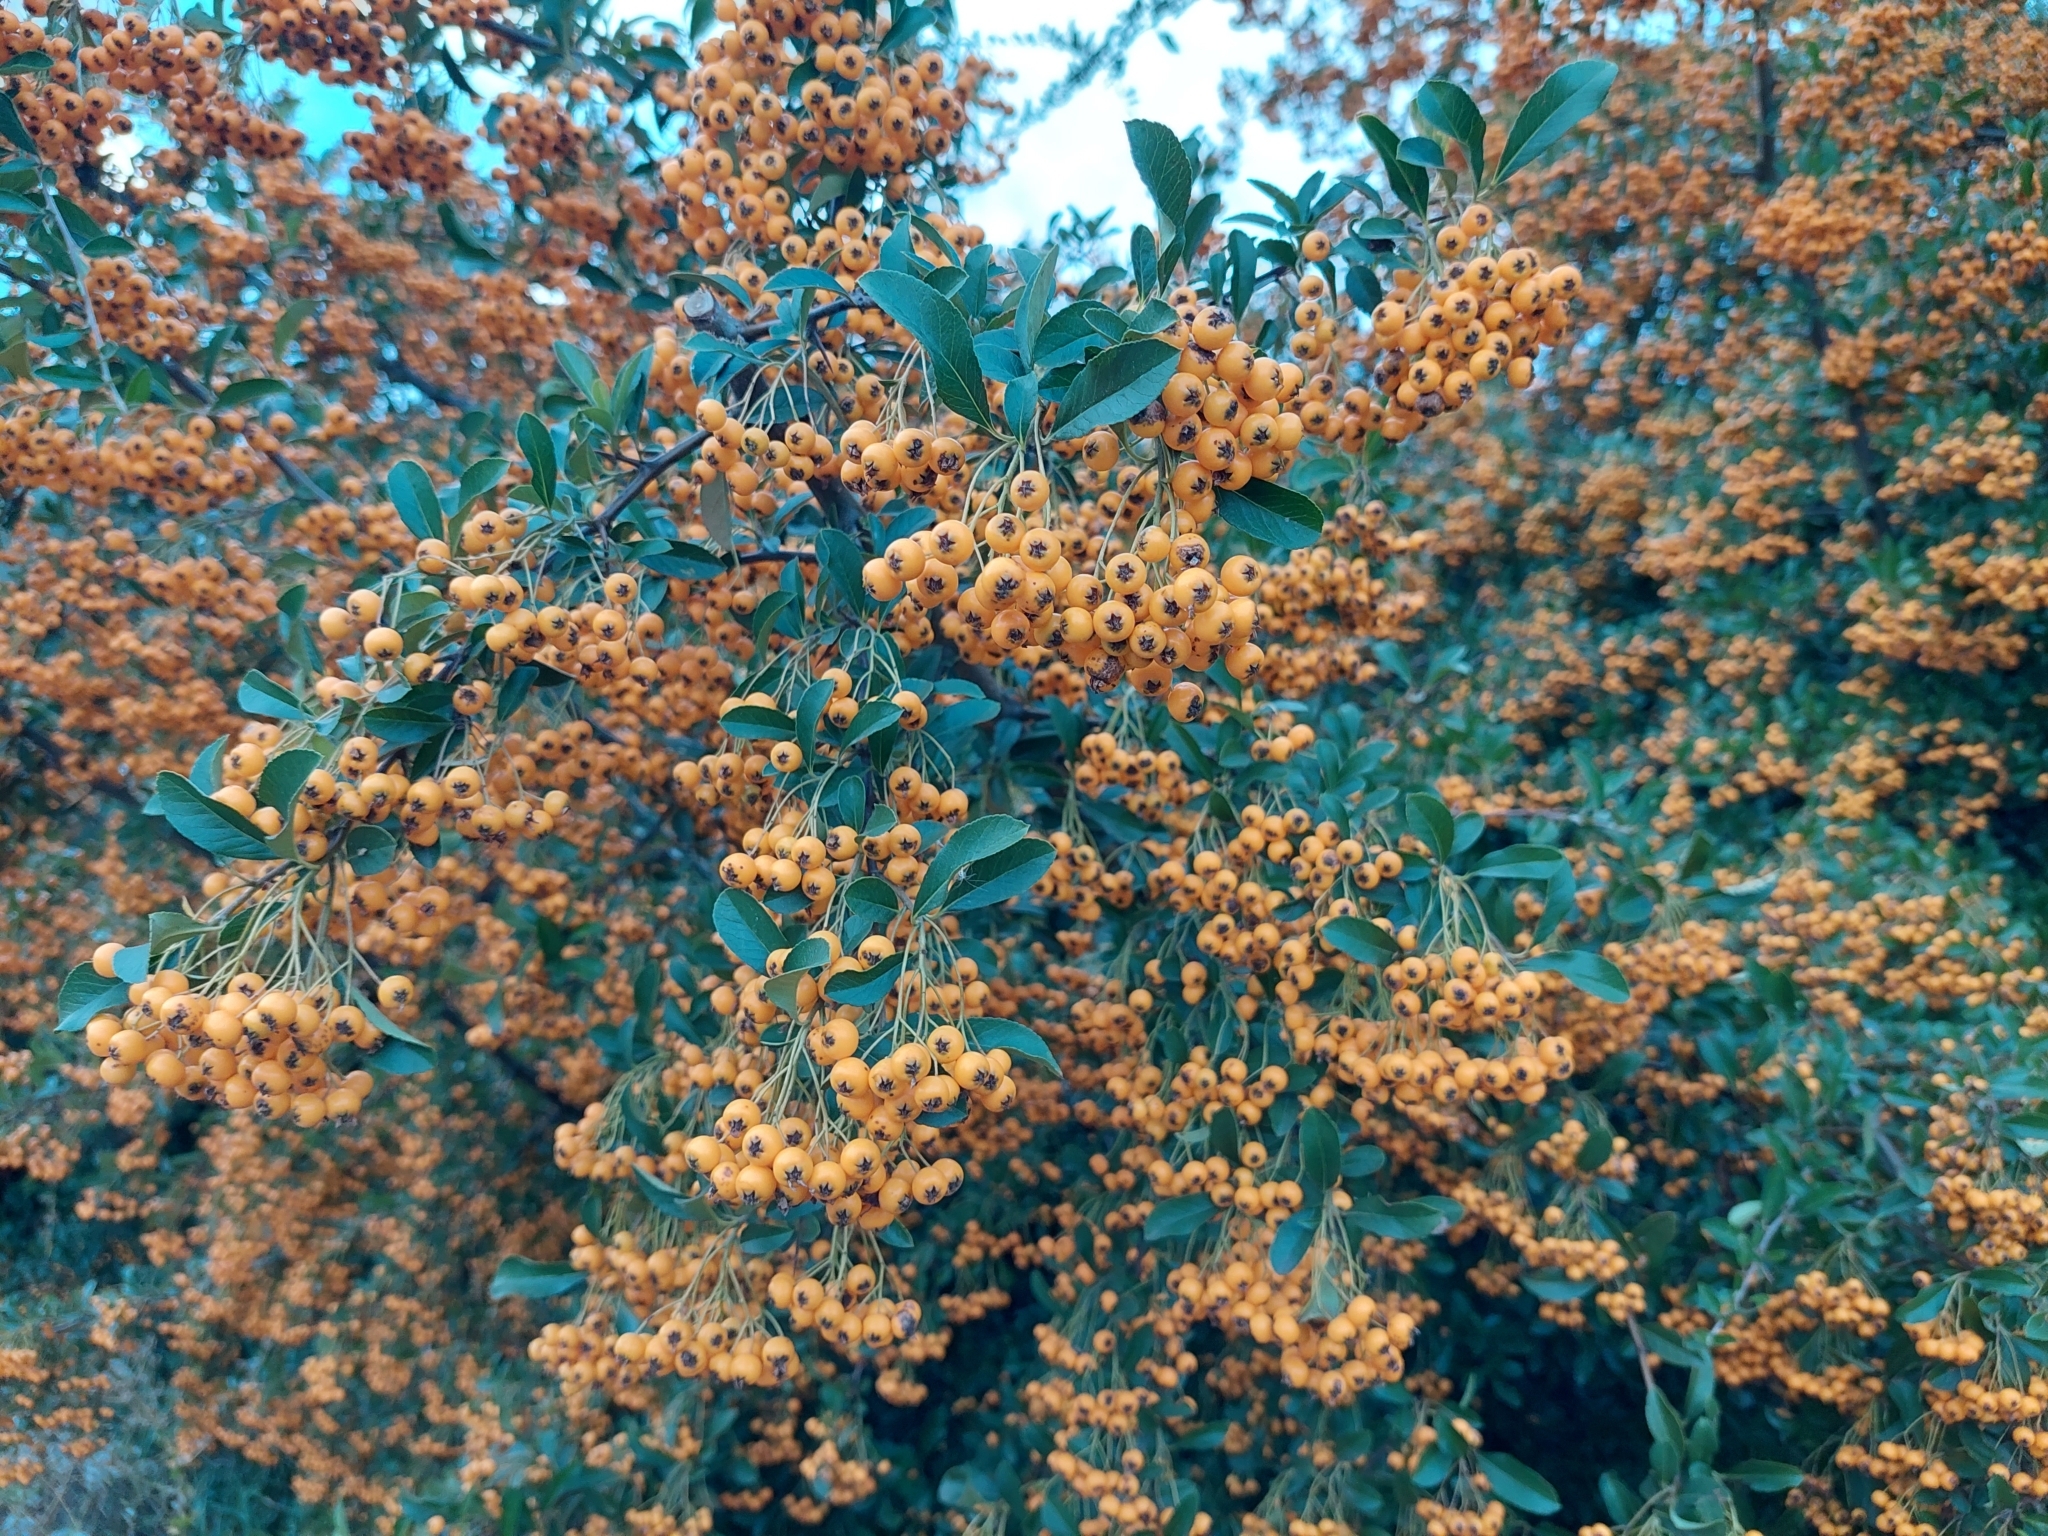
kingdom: Plantae
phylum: Tracheophyta
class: Magnoliopsida
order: Rosales
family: Rosaceae
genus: Pyracantha
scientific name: Pyracantha coccinea
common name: Firethorn
